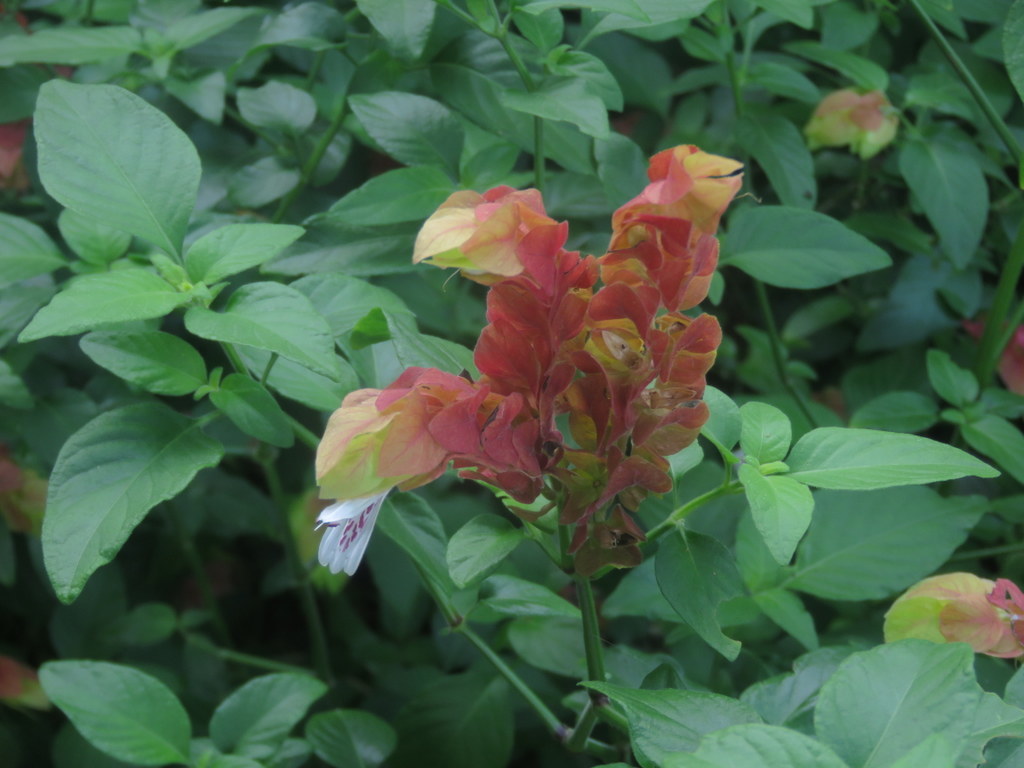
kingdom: Plantae
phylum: Tracheophyta
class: Magnoliopsida
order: Lamiales
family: Acanthaceae
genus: Justicia
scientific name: Justicia brandegeeana
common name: Shrimpplant
